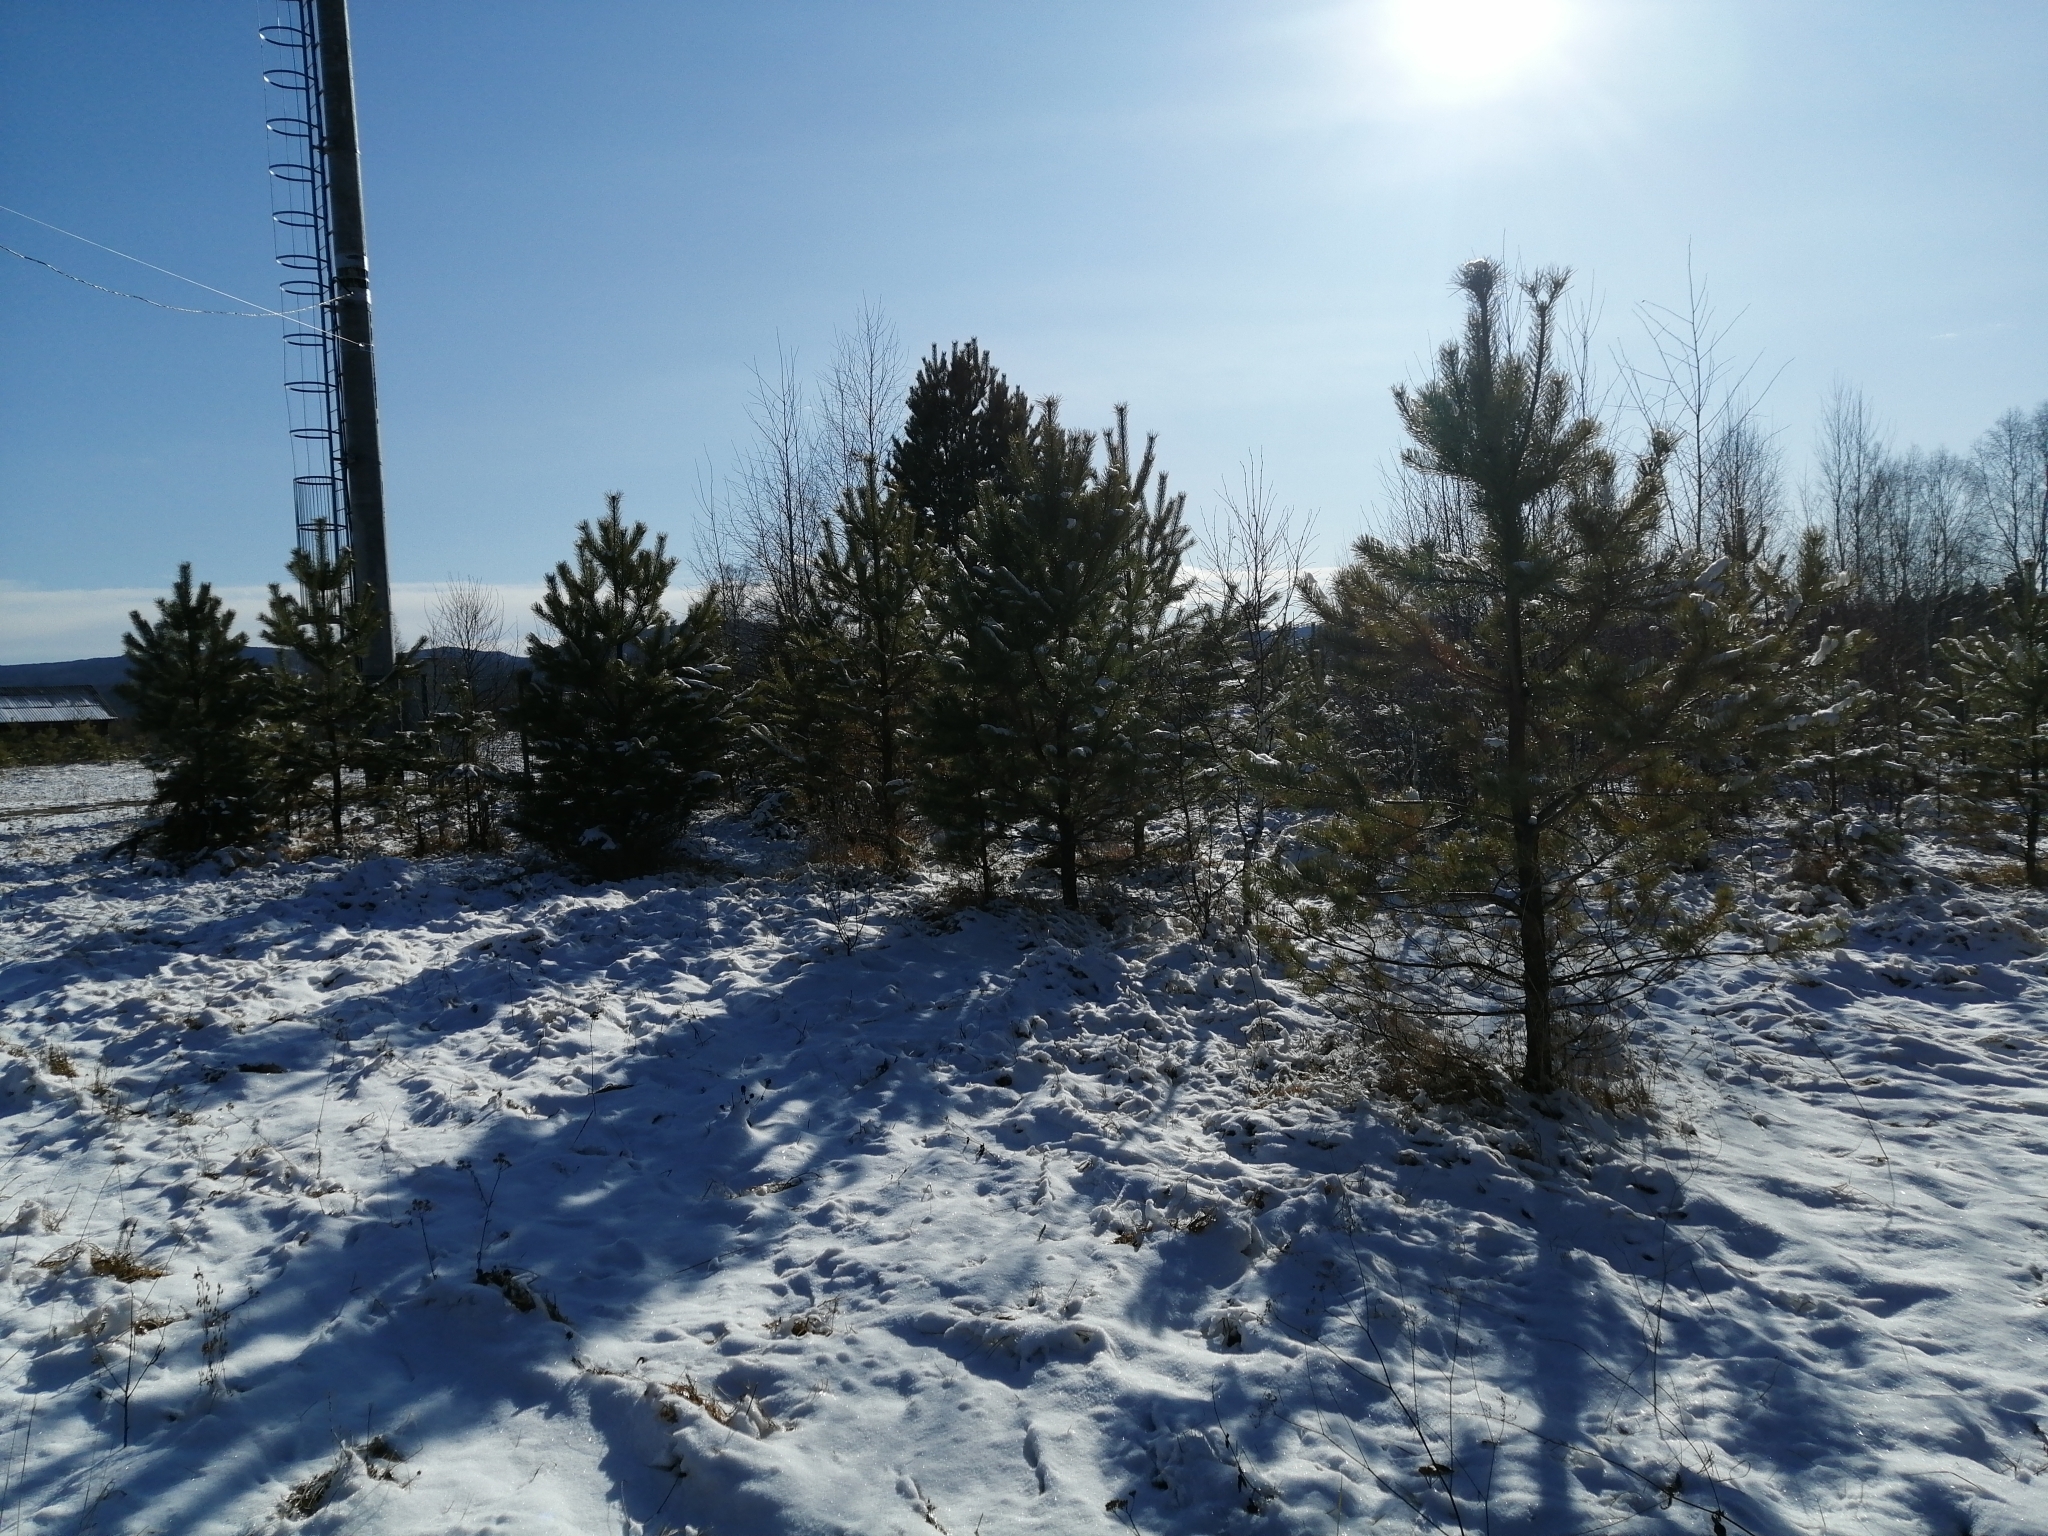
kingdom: Plantae
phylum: Tracheophyta
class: Pinopsida
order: Pinales
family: Pinaceae
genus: Pinus
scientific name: Pinus sylvestris
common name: Scots pine
